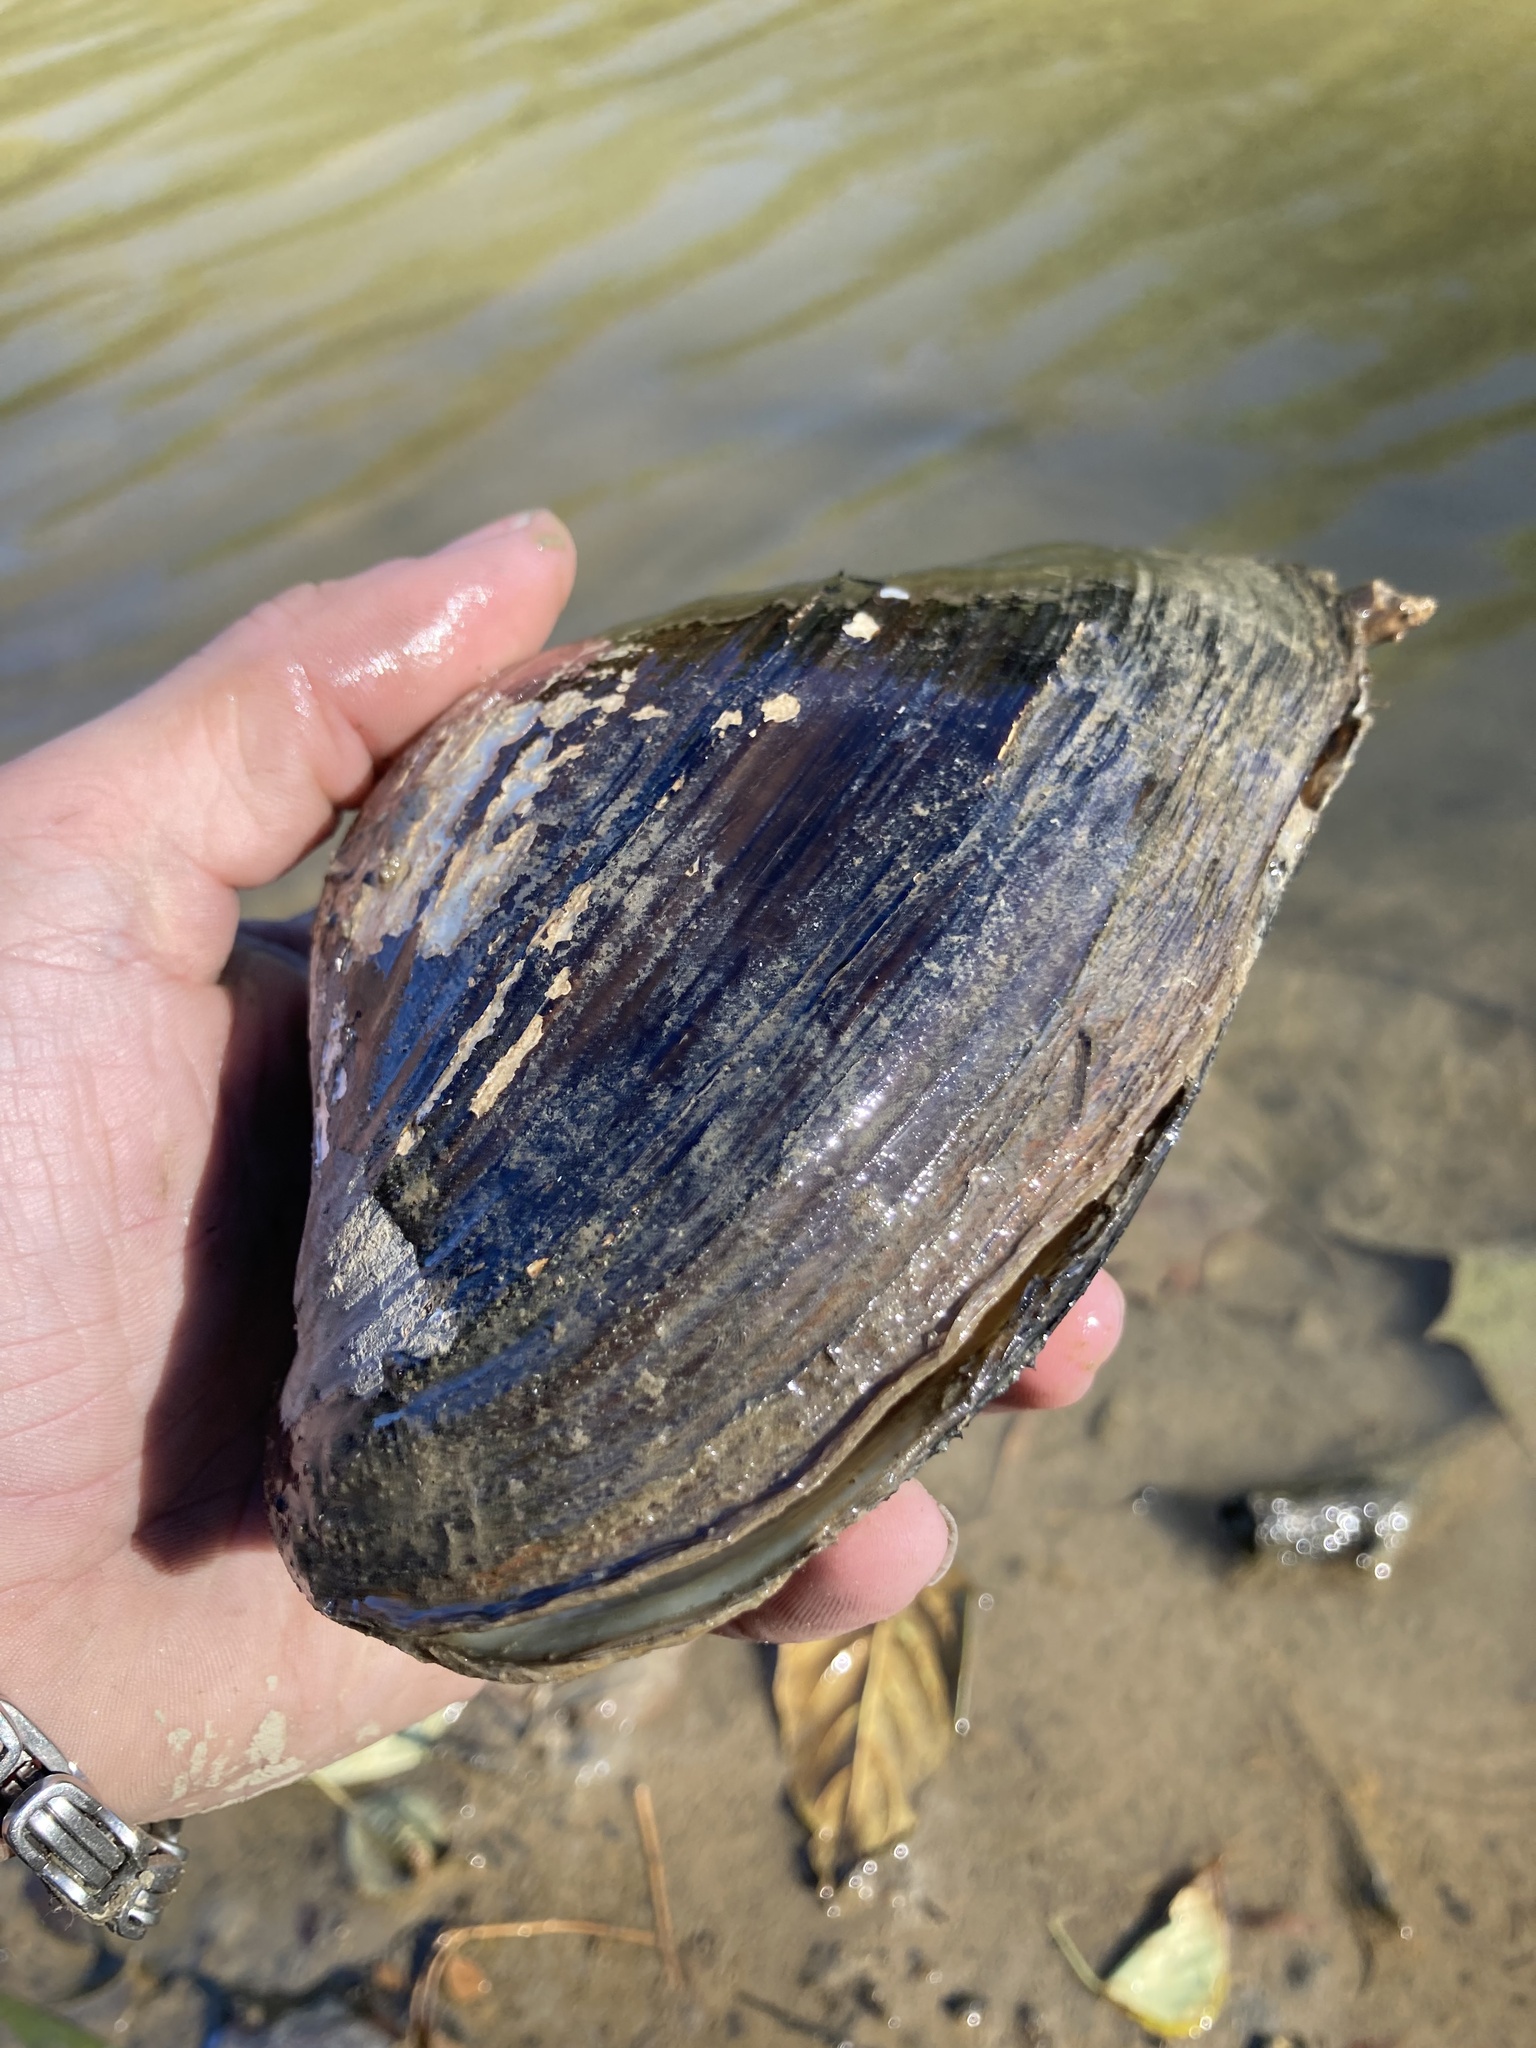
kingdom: Animalia
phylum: Mollusca
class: Bivalvia
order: Unionida
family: Unionidae
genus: Pyganodon
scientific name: Pyganodon grandis
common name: Giant floater
